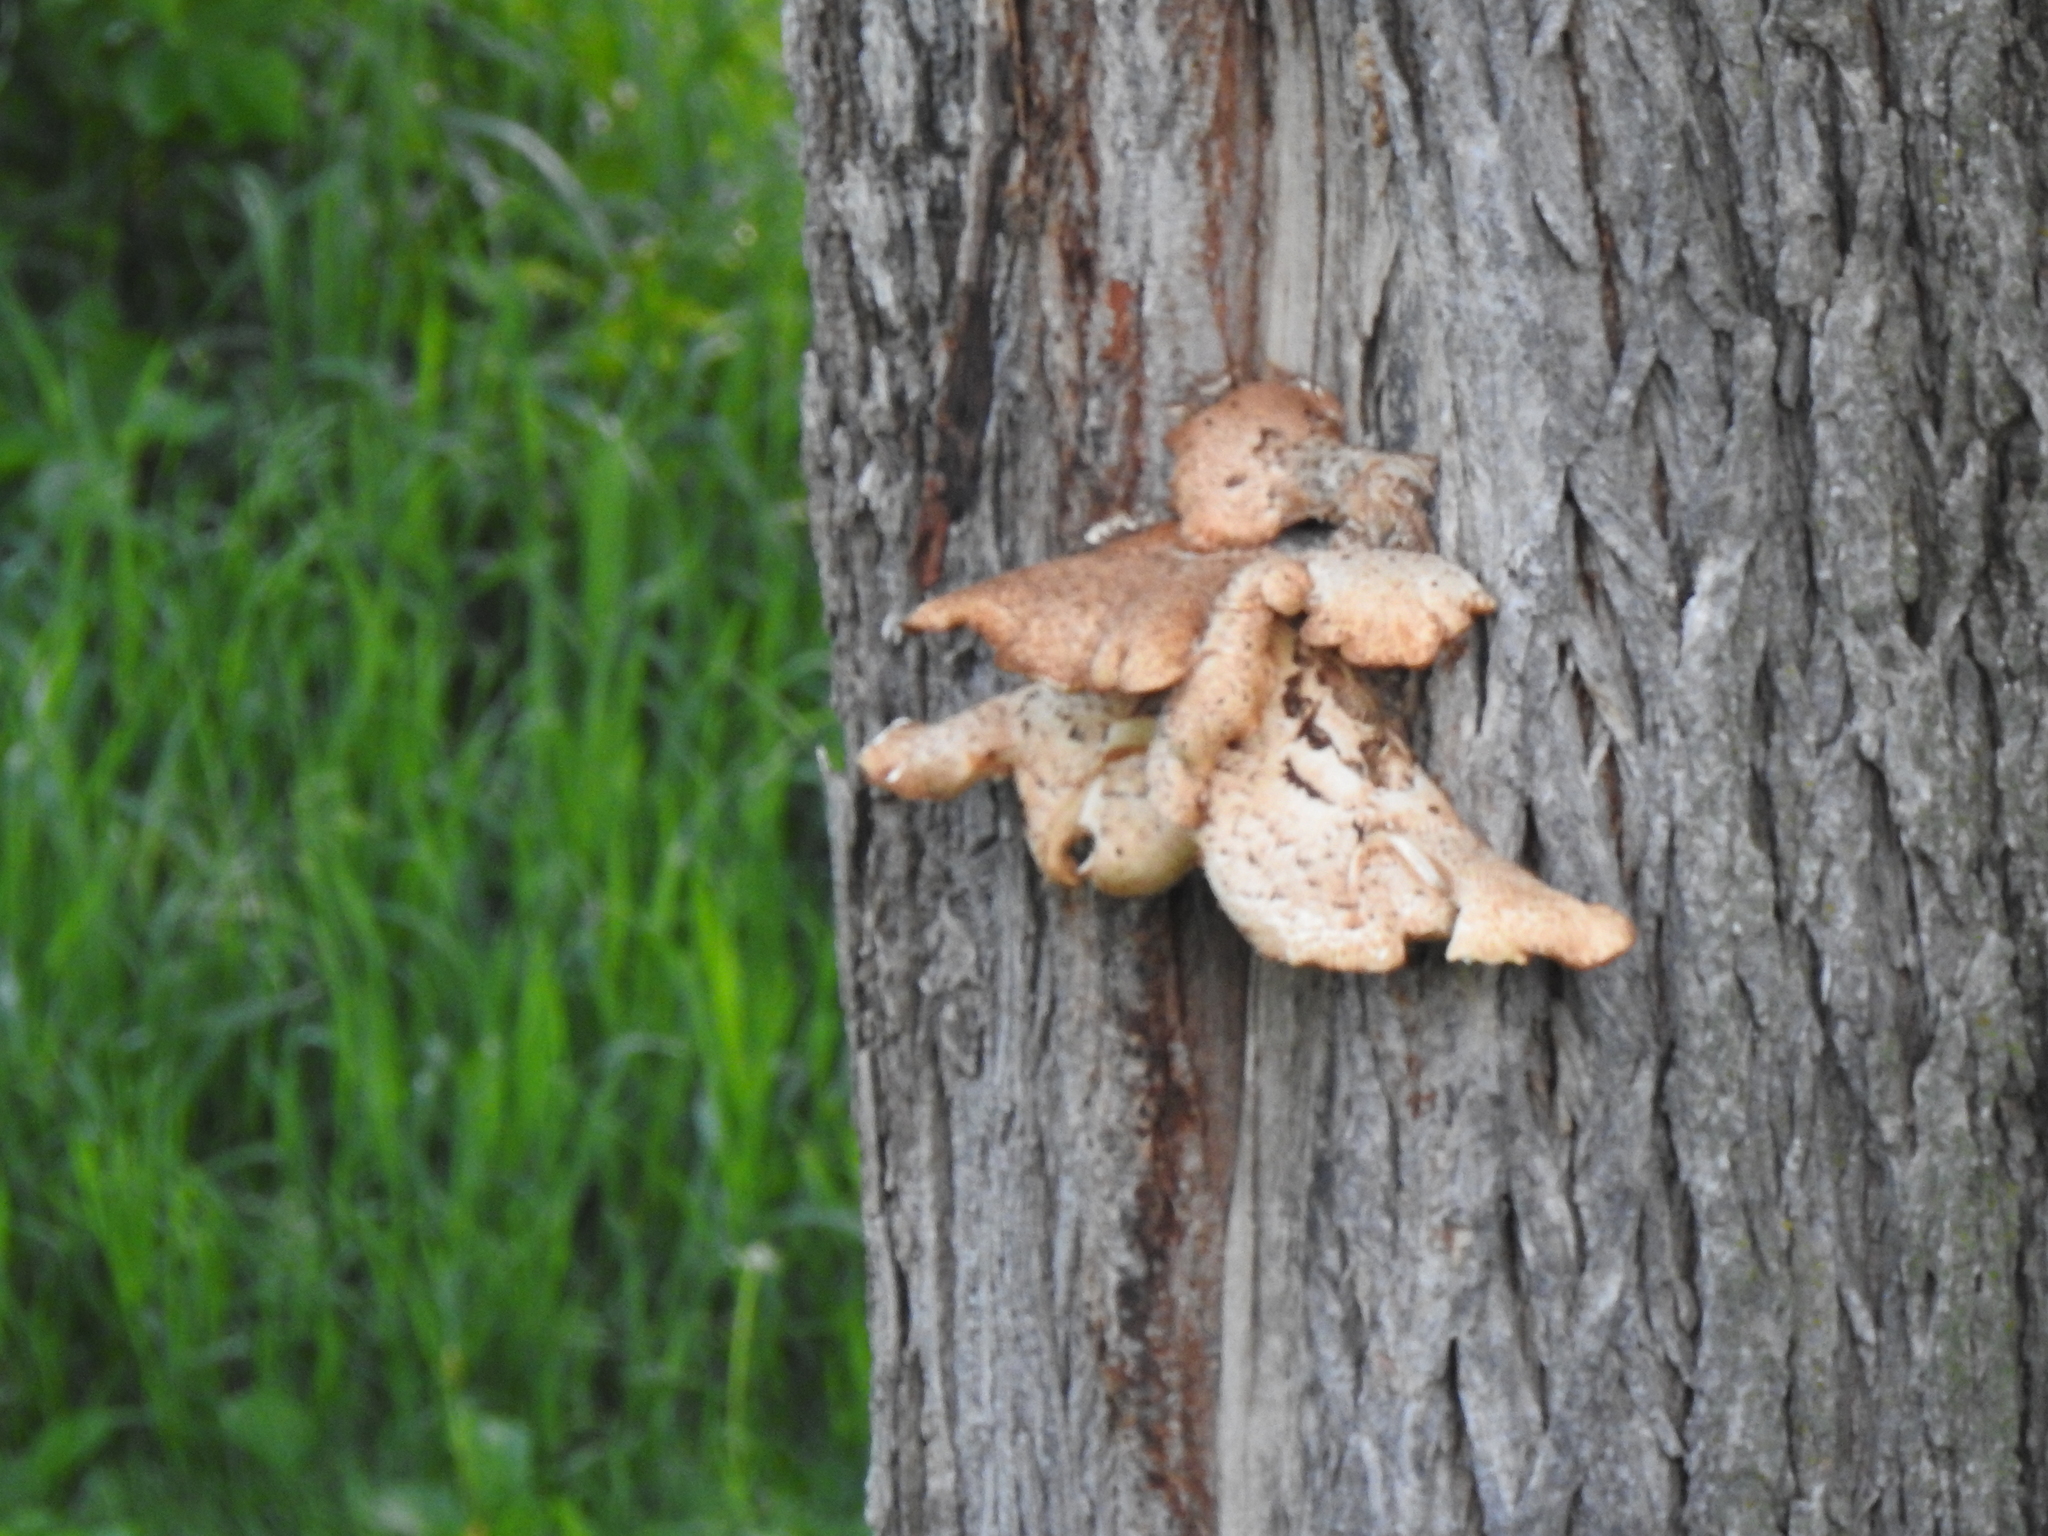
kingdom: Fungi
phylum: Basidiomycota
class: Agaricomycetes
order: Polyporales
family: Polyporaceae
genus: Cerioporus
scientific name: Cerioporus squamosus
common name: Dryad's saddle
